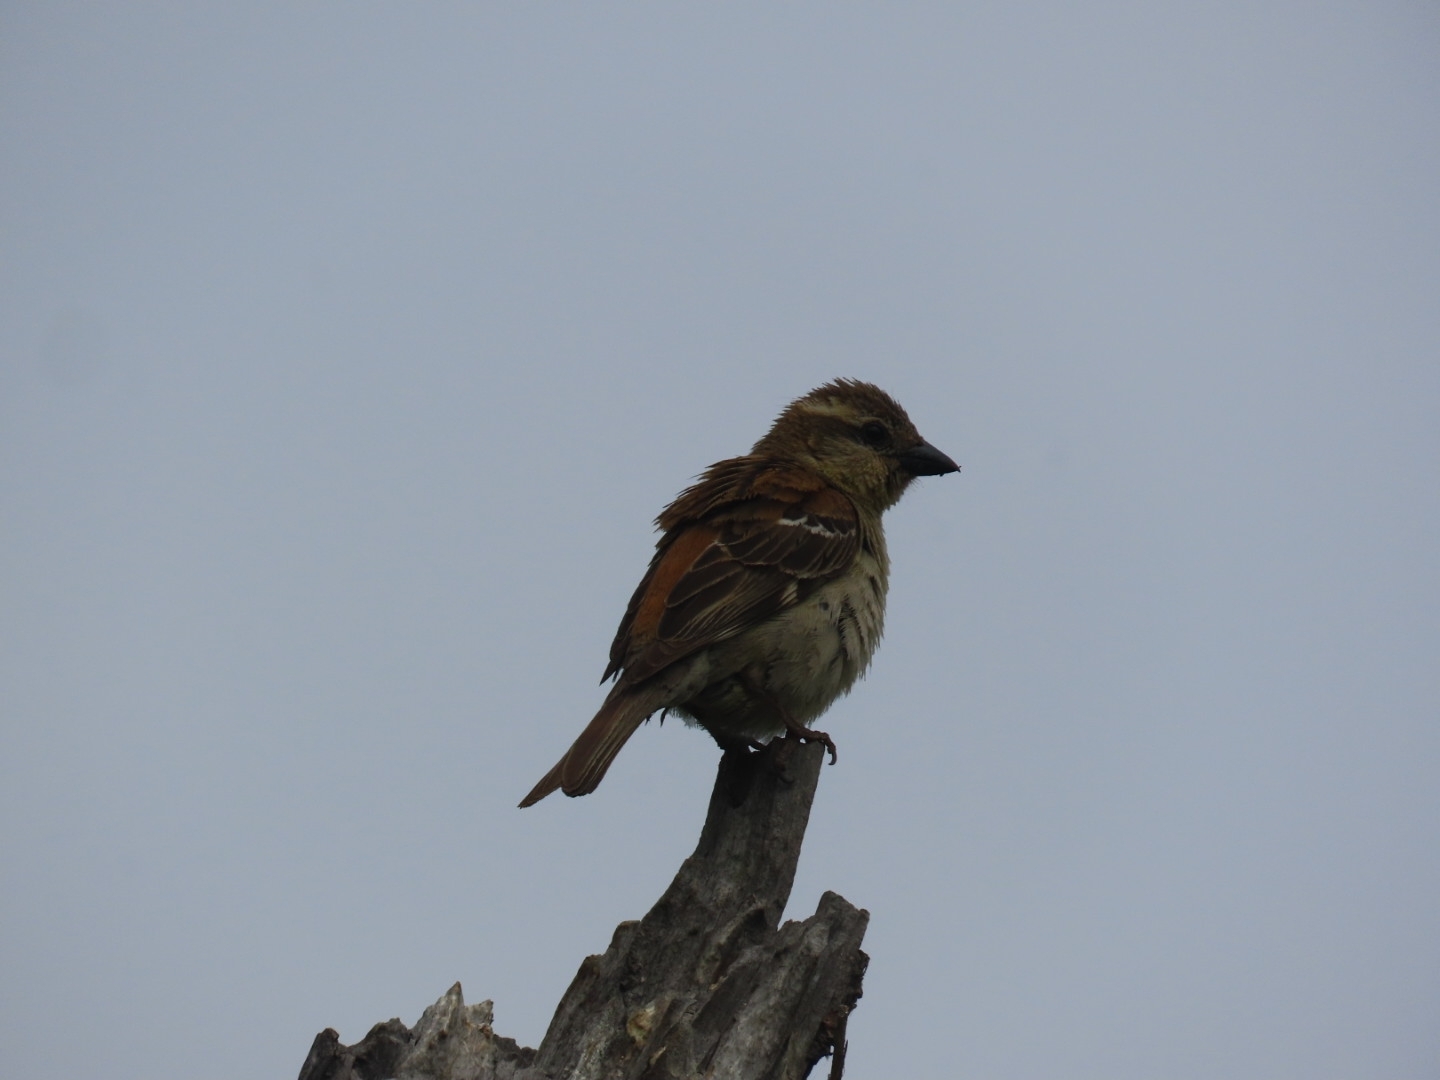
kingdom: Animalia
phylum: Chordata
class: Aves
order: Passeriformes
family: Passeridae
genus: Passer
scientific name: Passer cinnamomeus
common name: Russet sparrow
